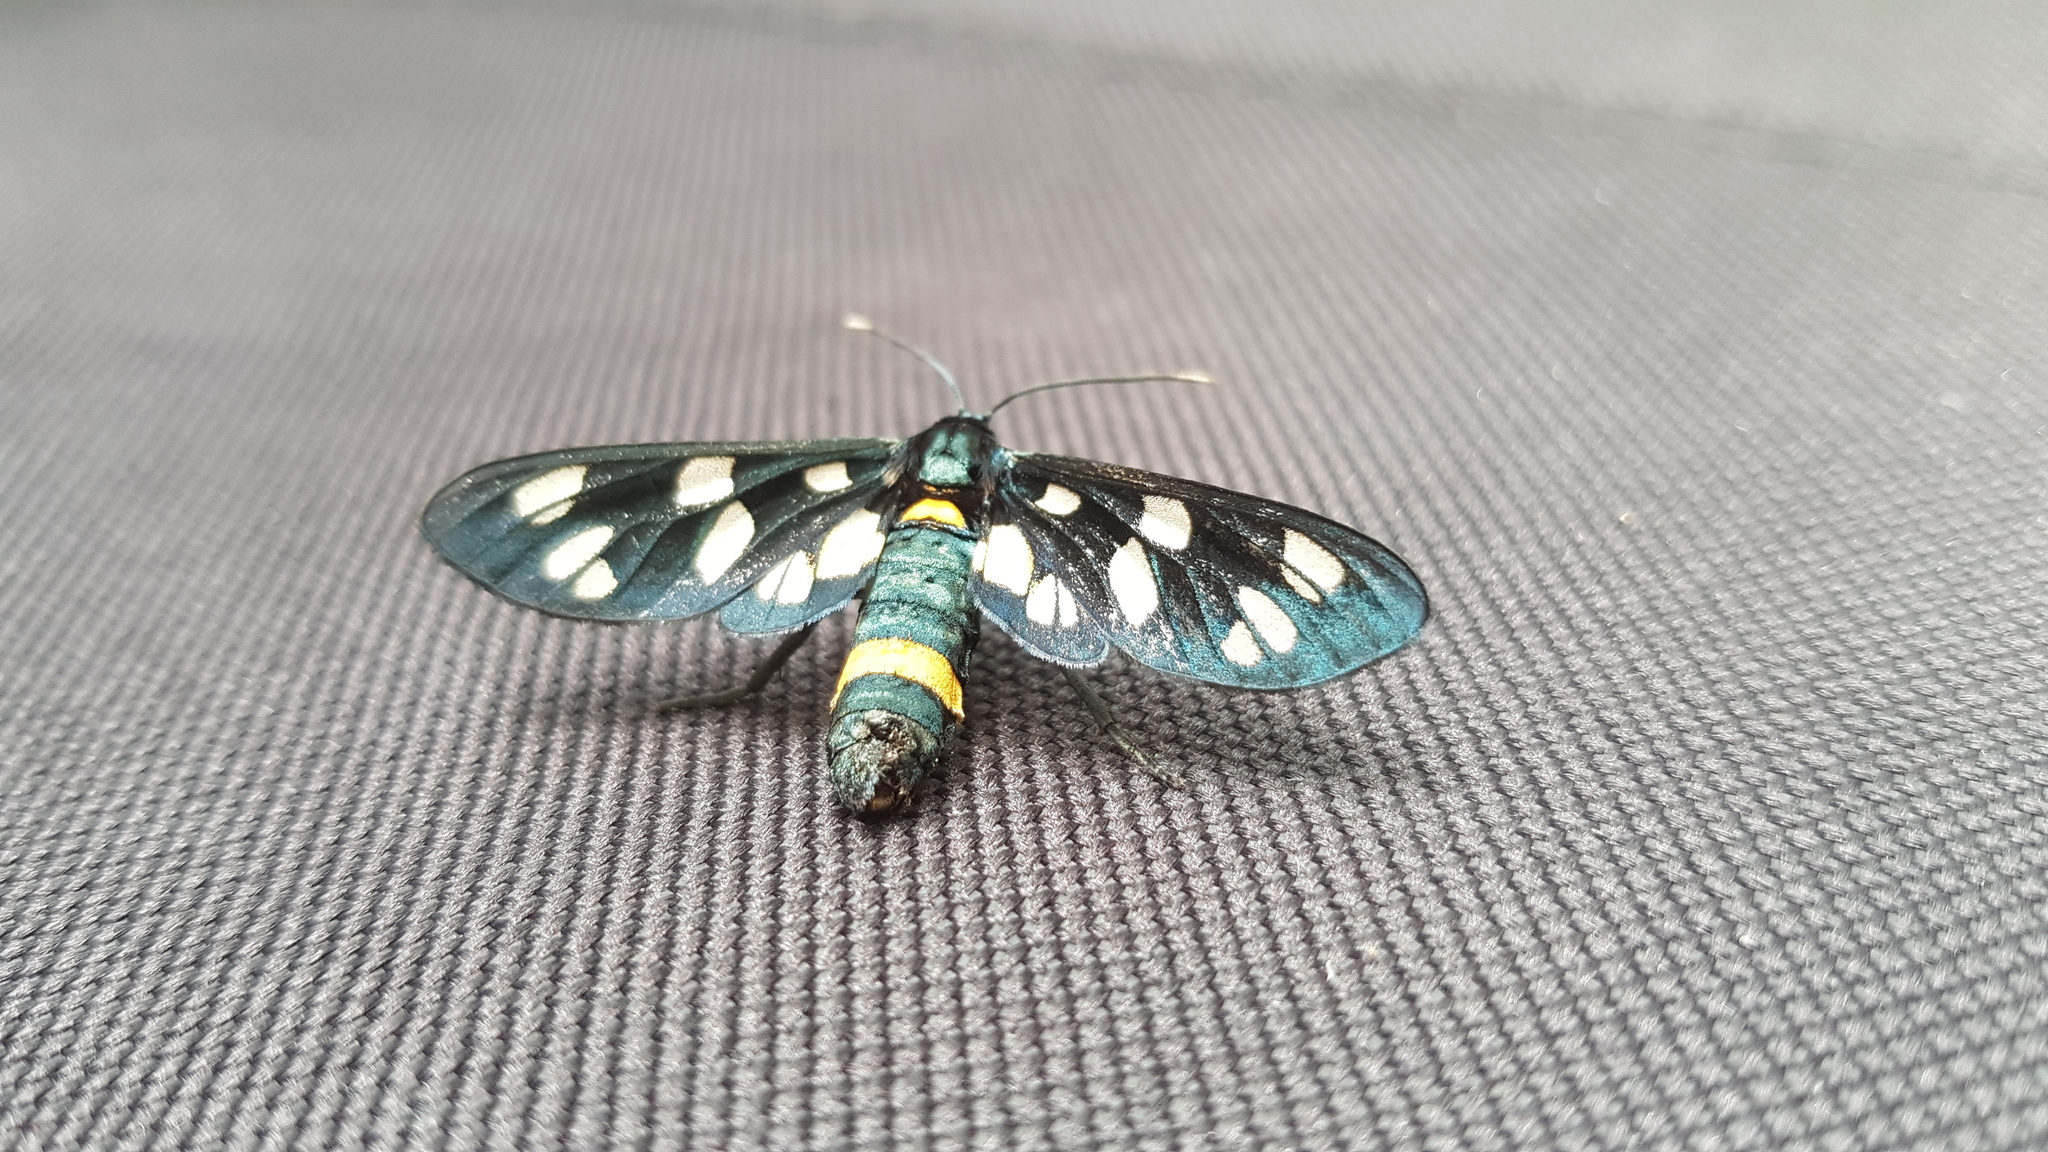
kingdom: Animalia
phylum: Arthropoda
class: Insecta
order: Lepidoptera
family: Erebidae
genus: Amata
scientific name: Amata phegea
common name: Nine-spotted
